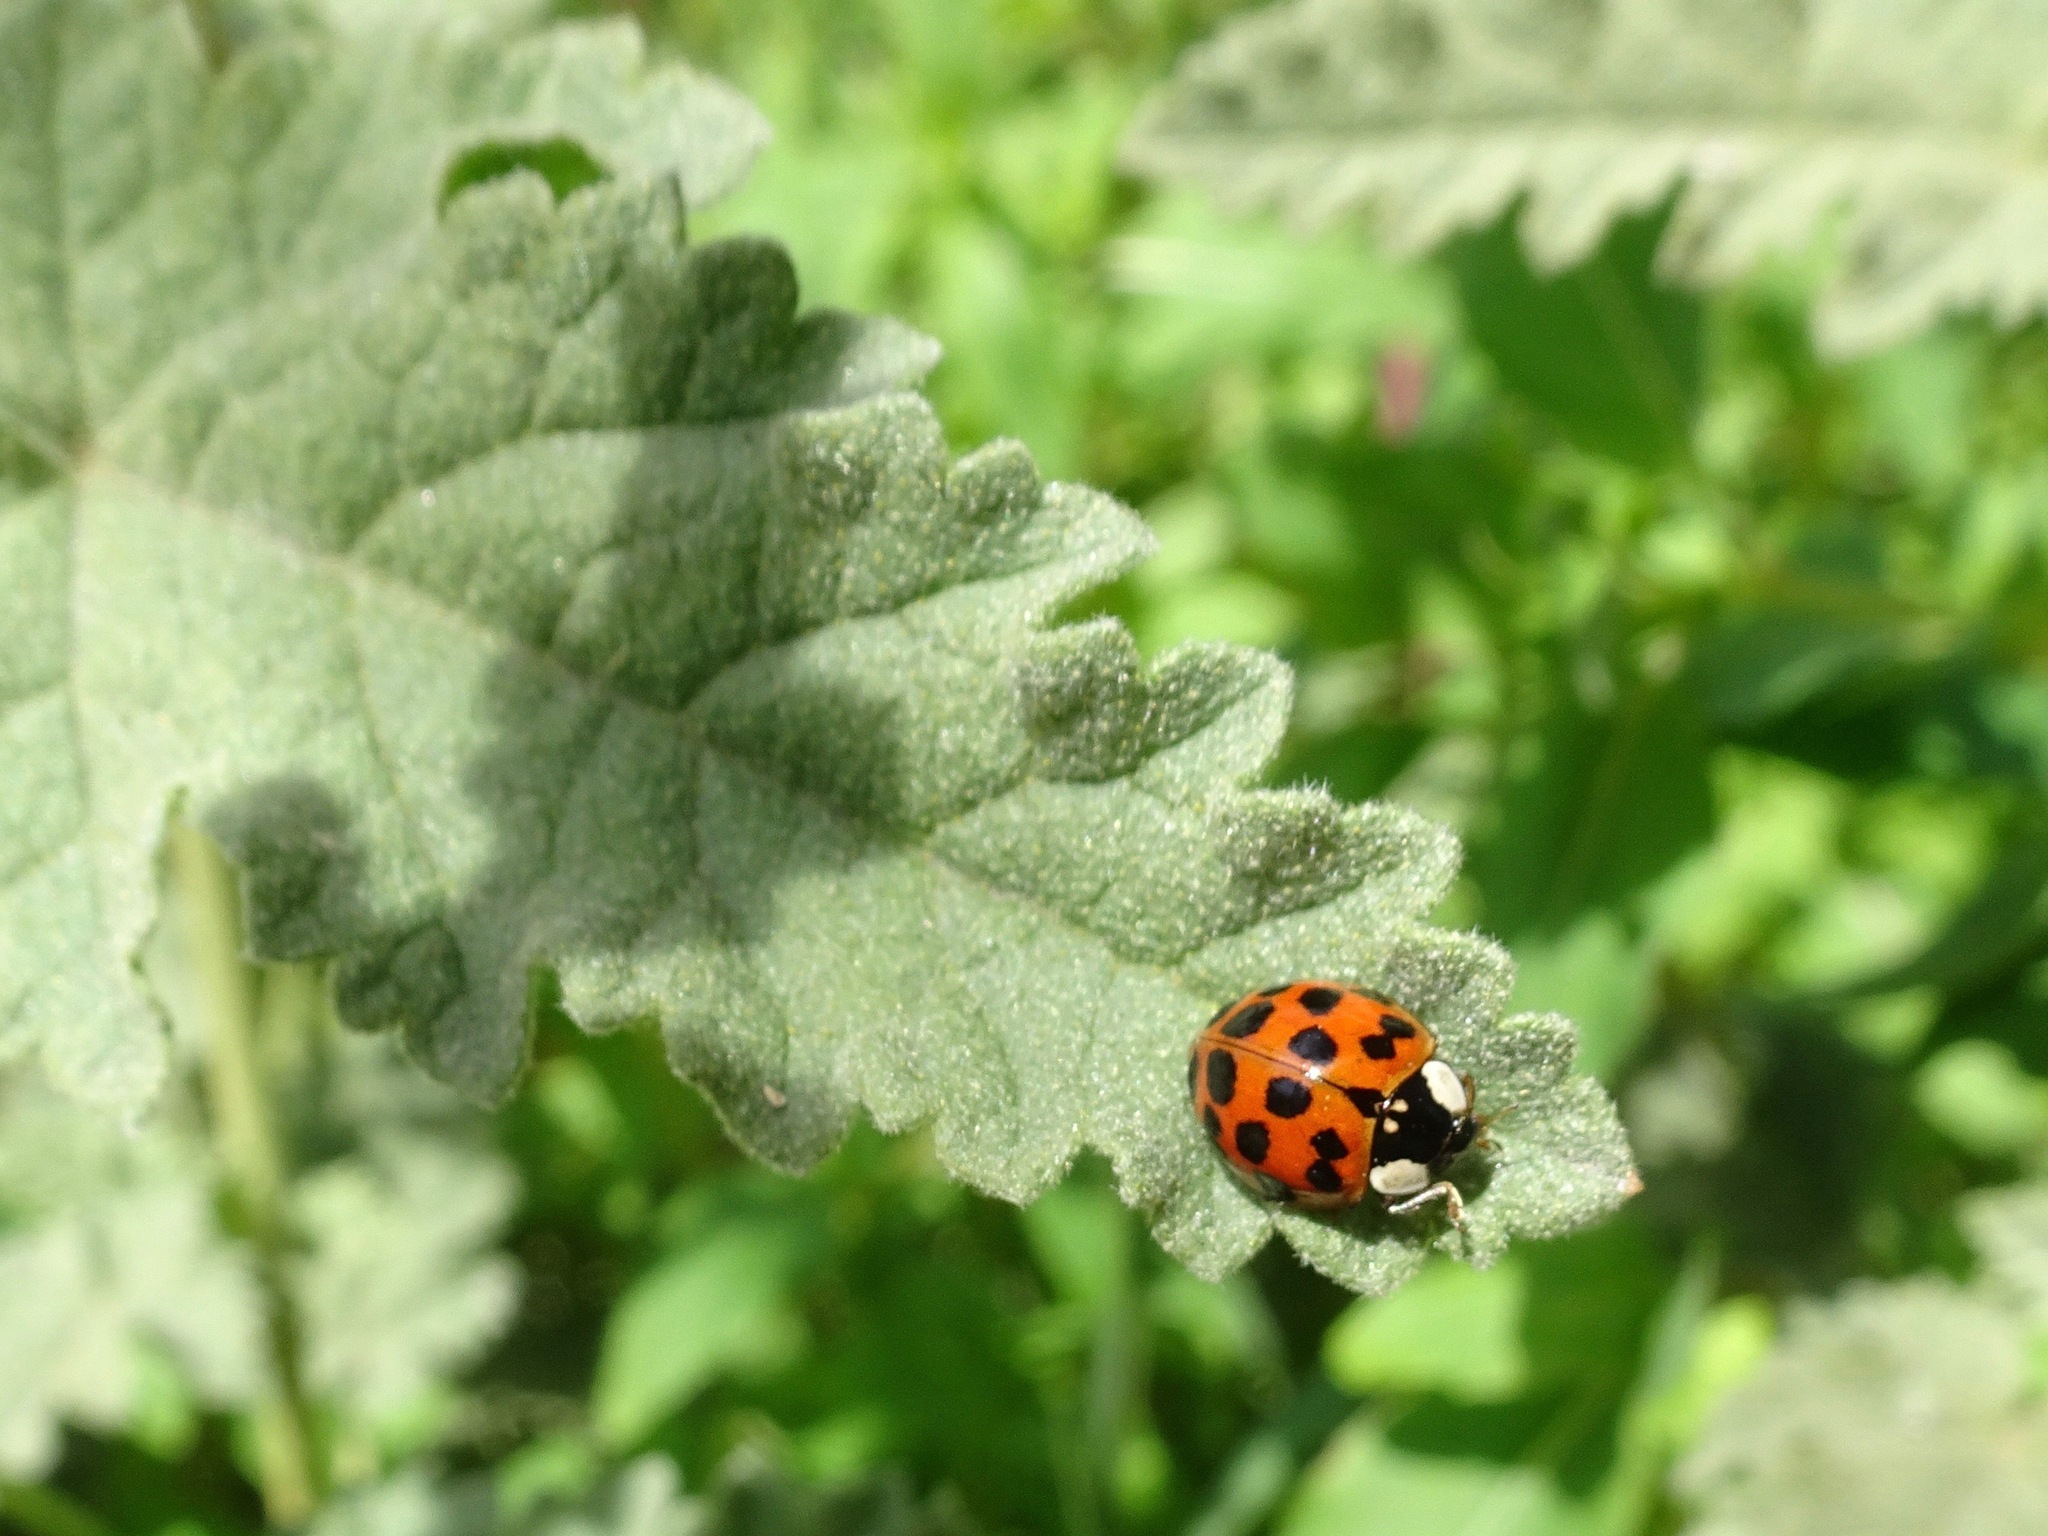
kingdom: Animalia
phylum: Arthropoda
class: Insecta
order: Coleoptera
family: Coccinellidae
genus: Harmonia
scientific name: Harmonia axyridis
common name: Harlequin ladybird
